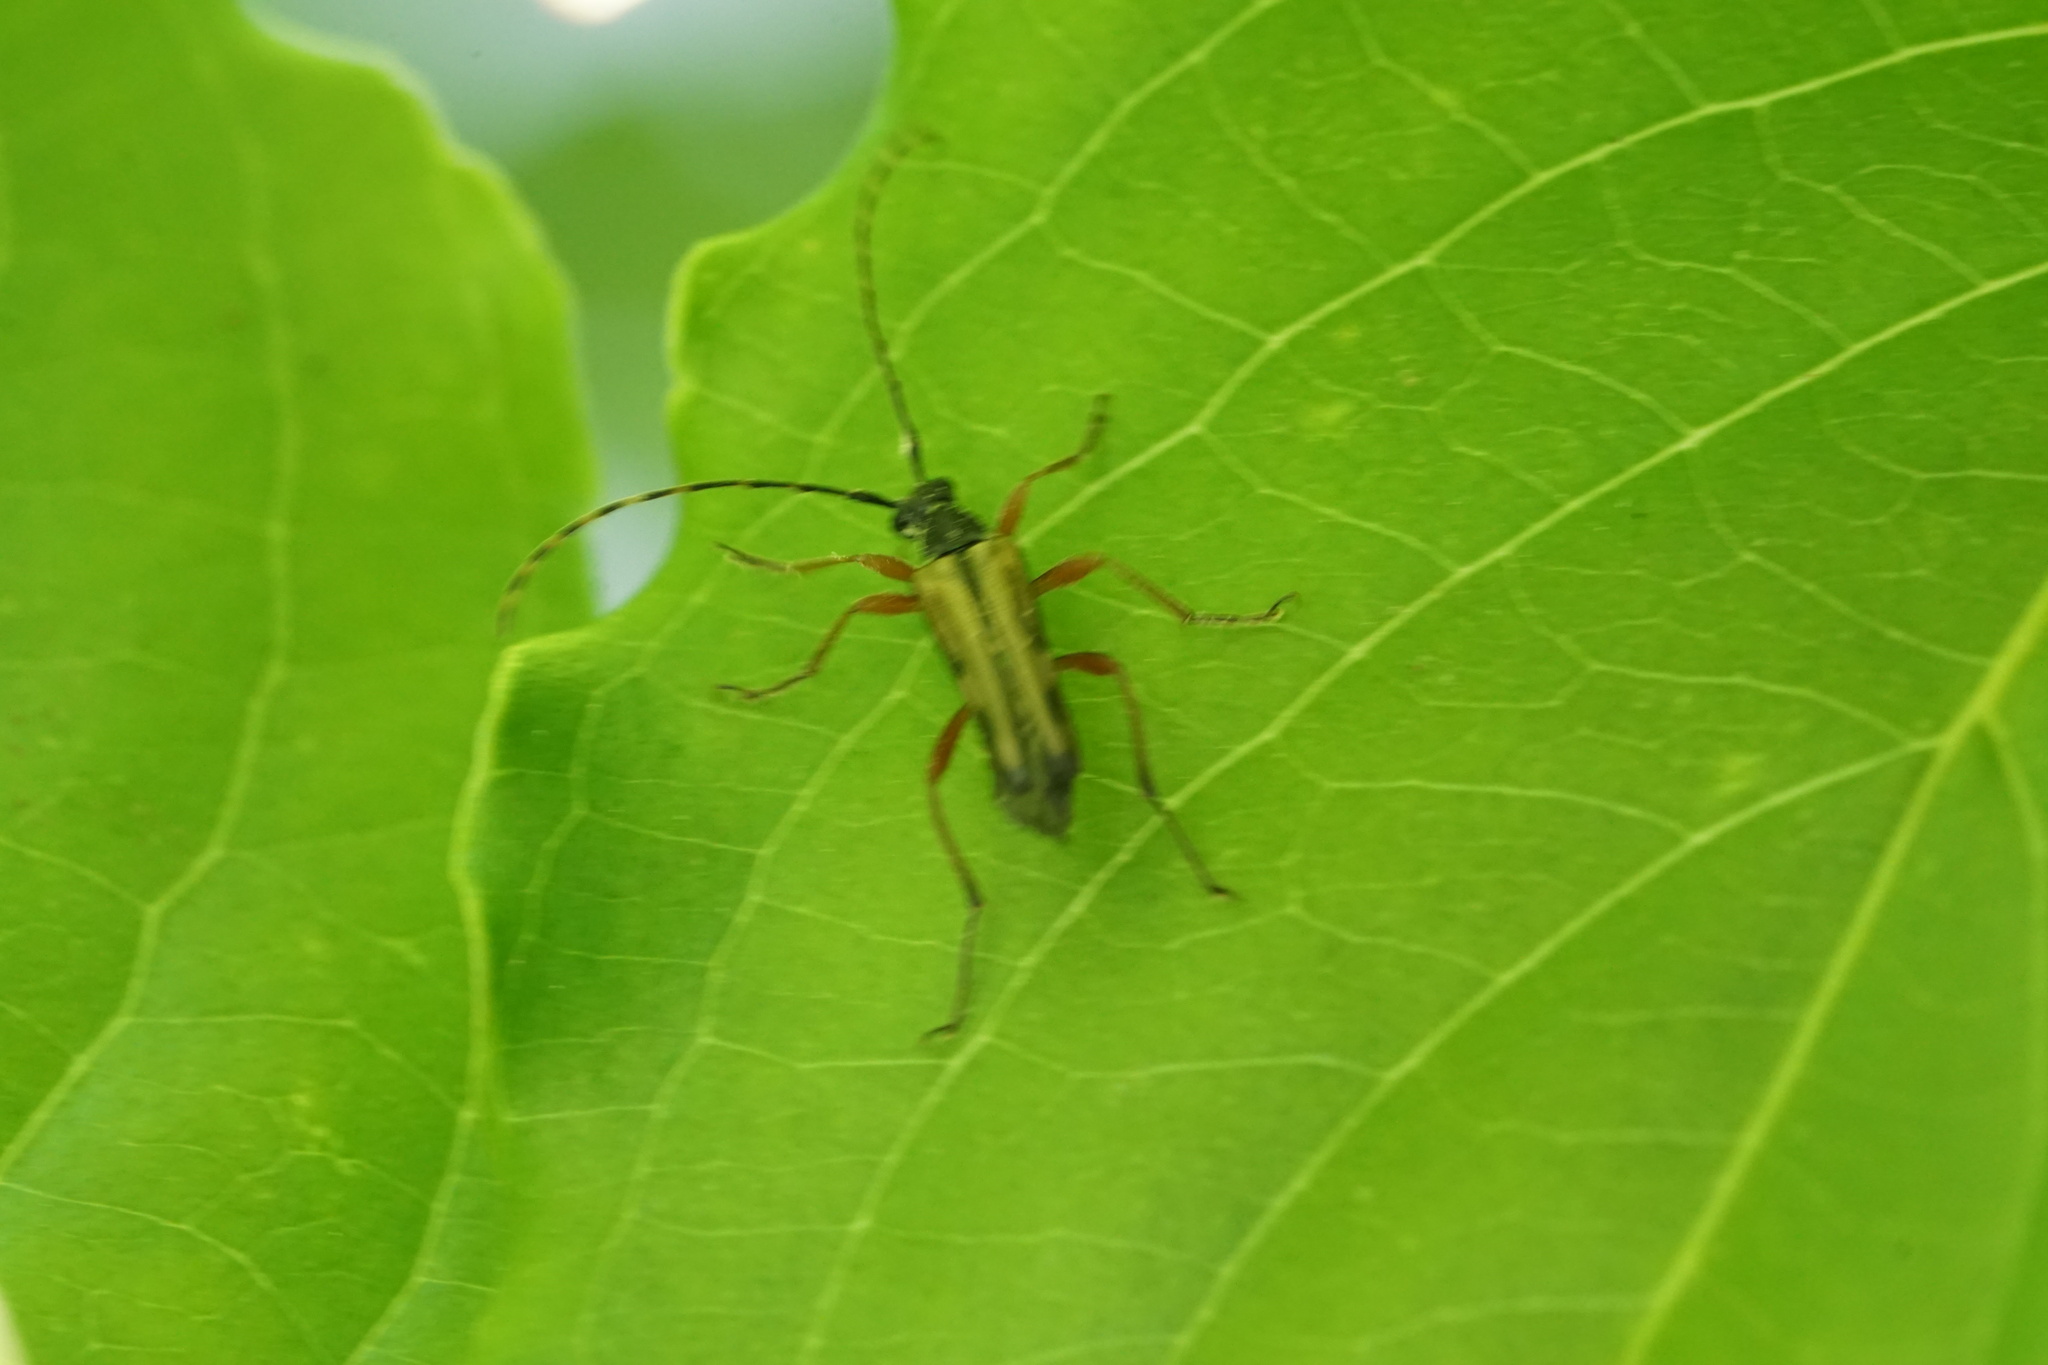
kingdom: Animalia
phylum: Arthropoda
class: Insecta
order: Coleoptera
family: Cerambycidae
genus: Analeptura
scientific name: Analeptura lineola
